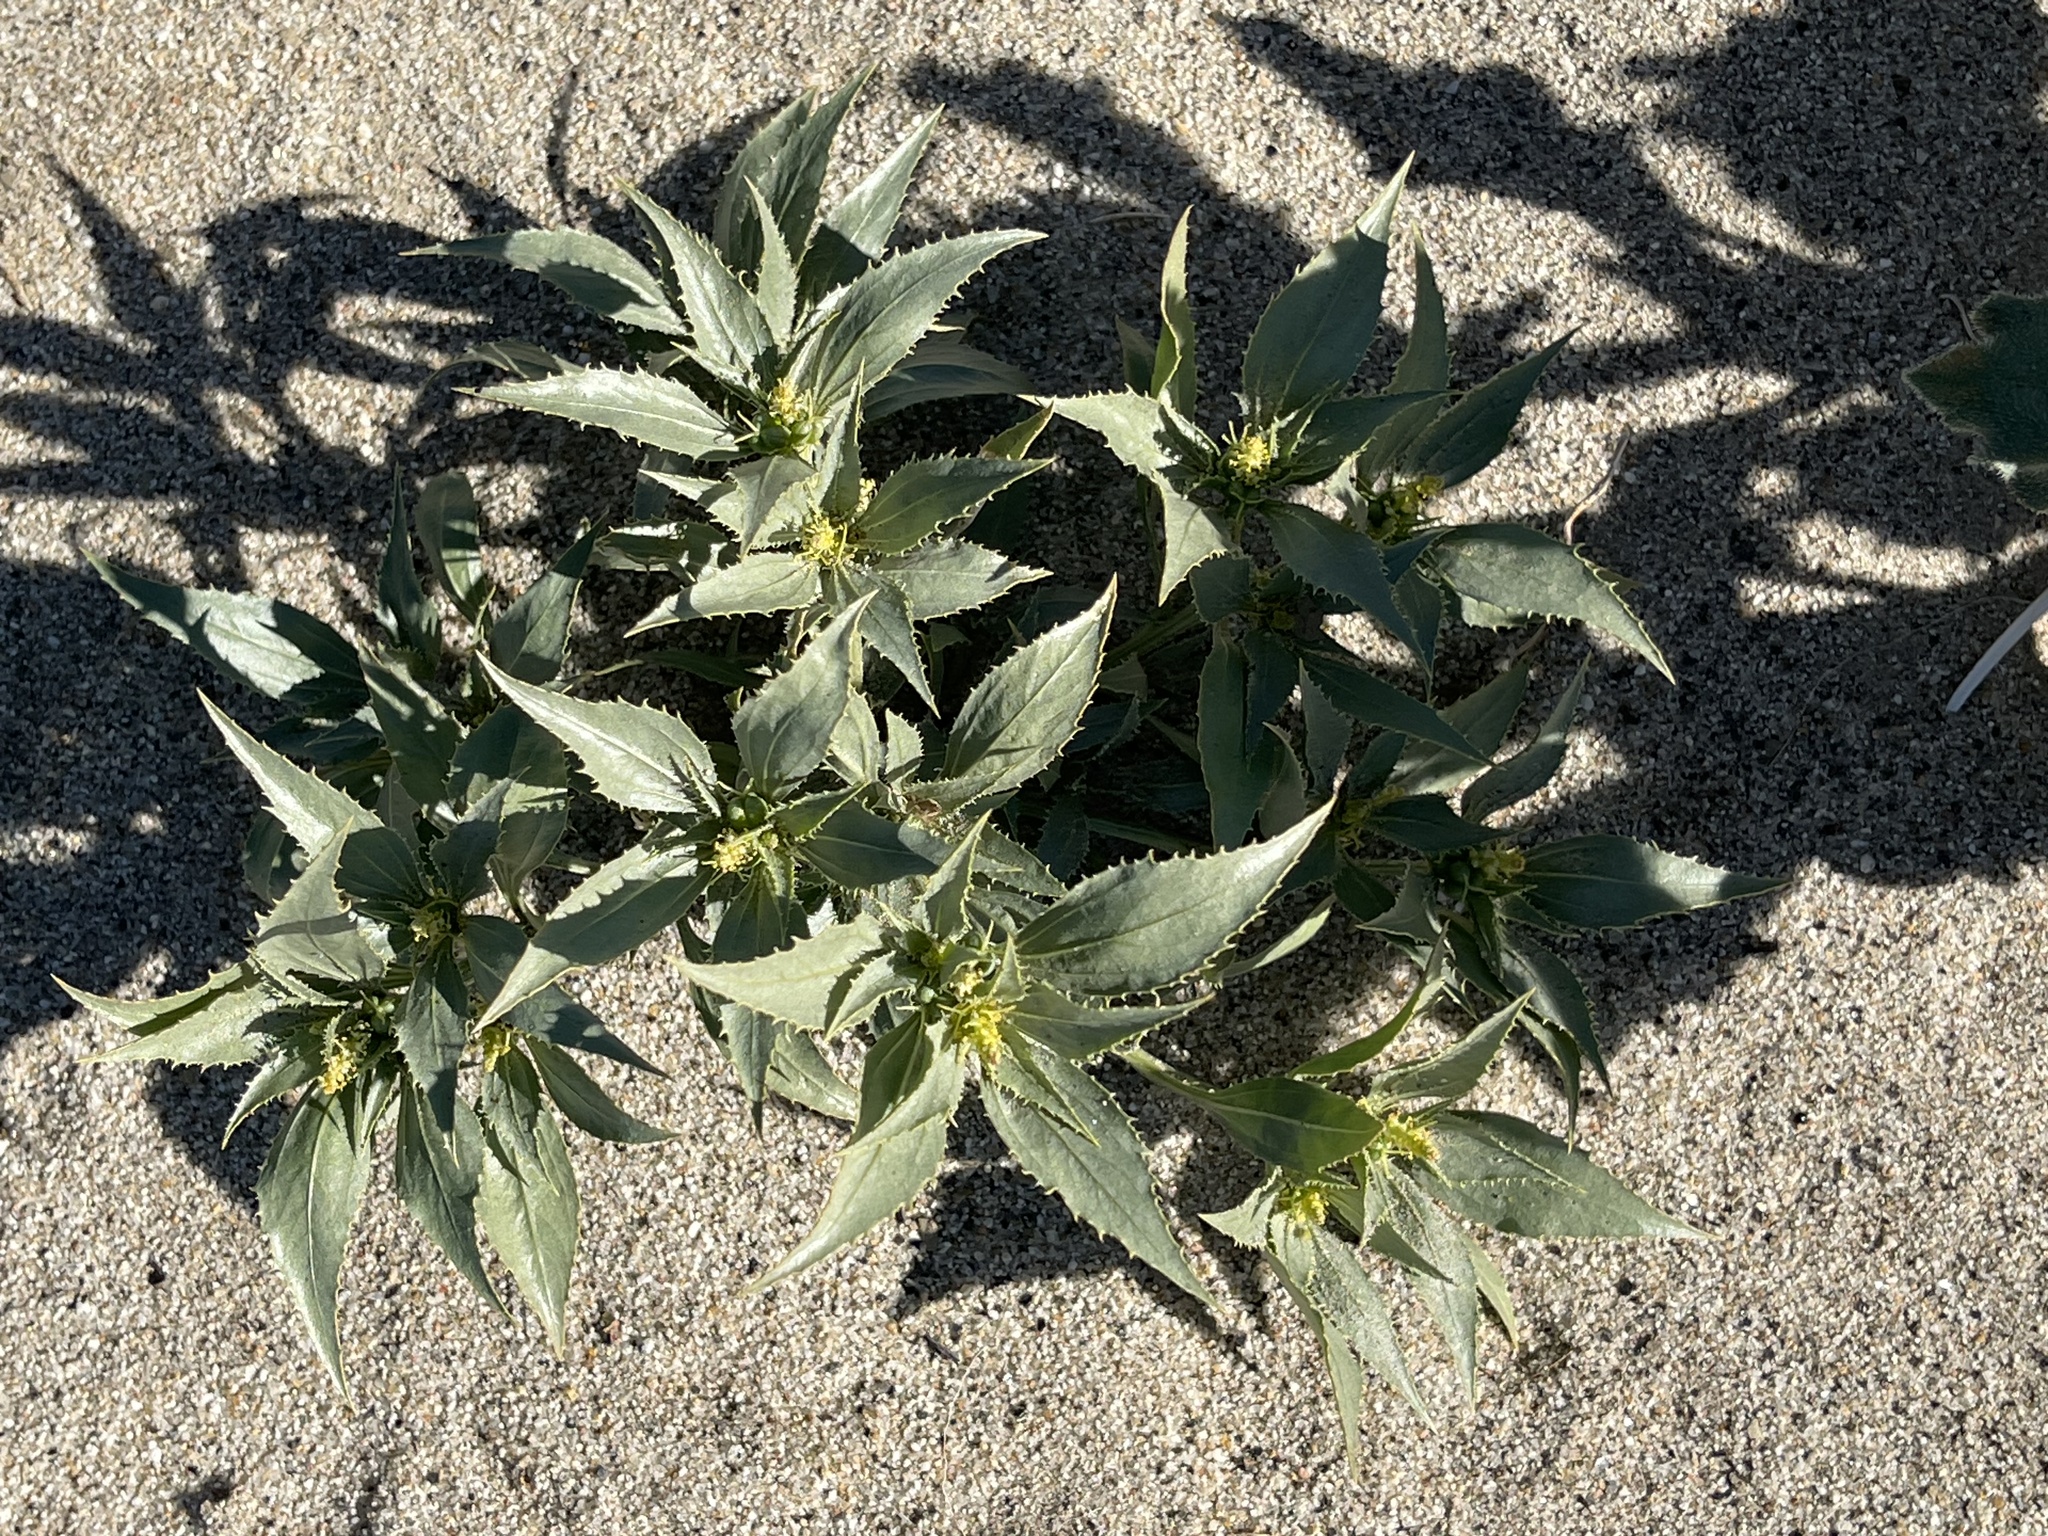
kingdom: Plantae
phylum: Tracheophyta
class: Magnoliopsida
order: Malpighiales
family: Euphorbiaceae
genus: Stillingia
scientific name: Stillingia spinulosa
